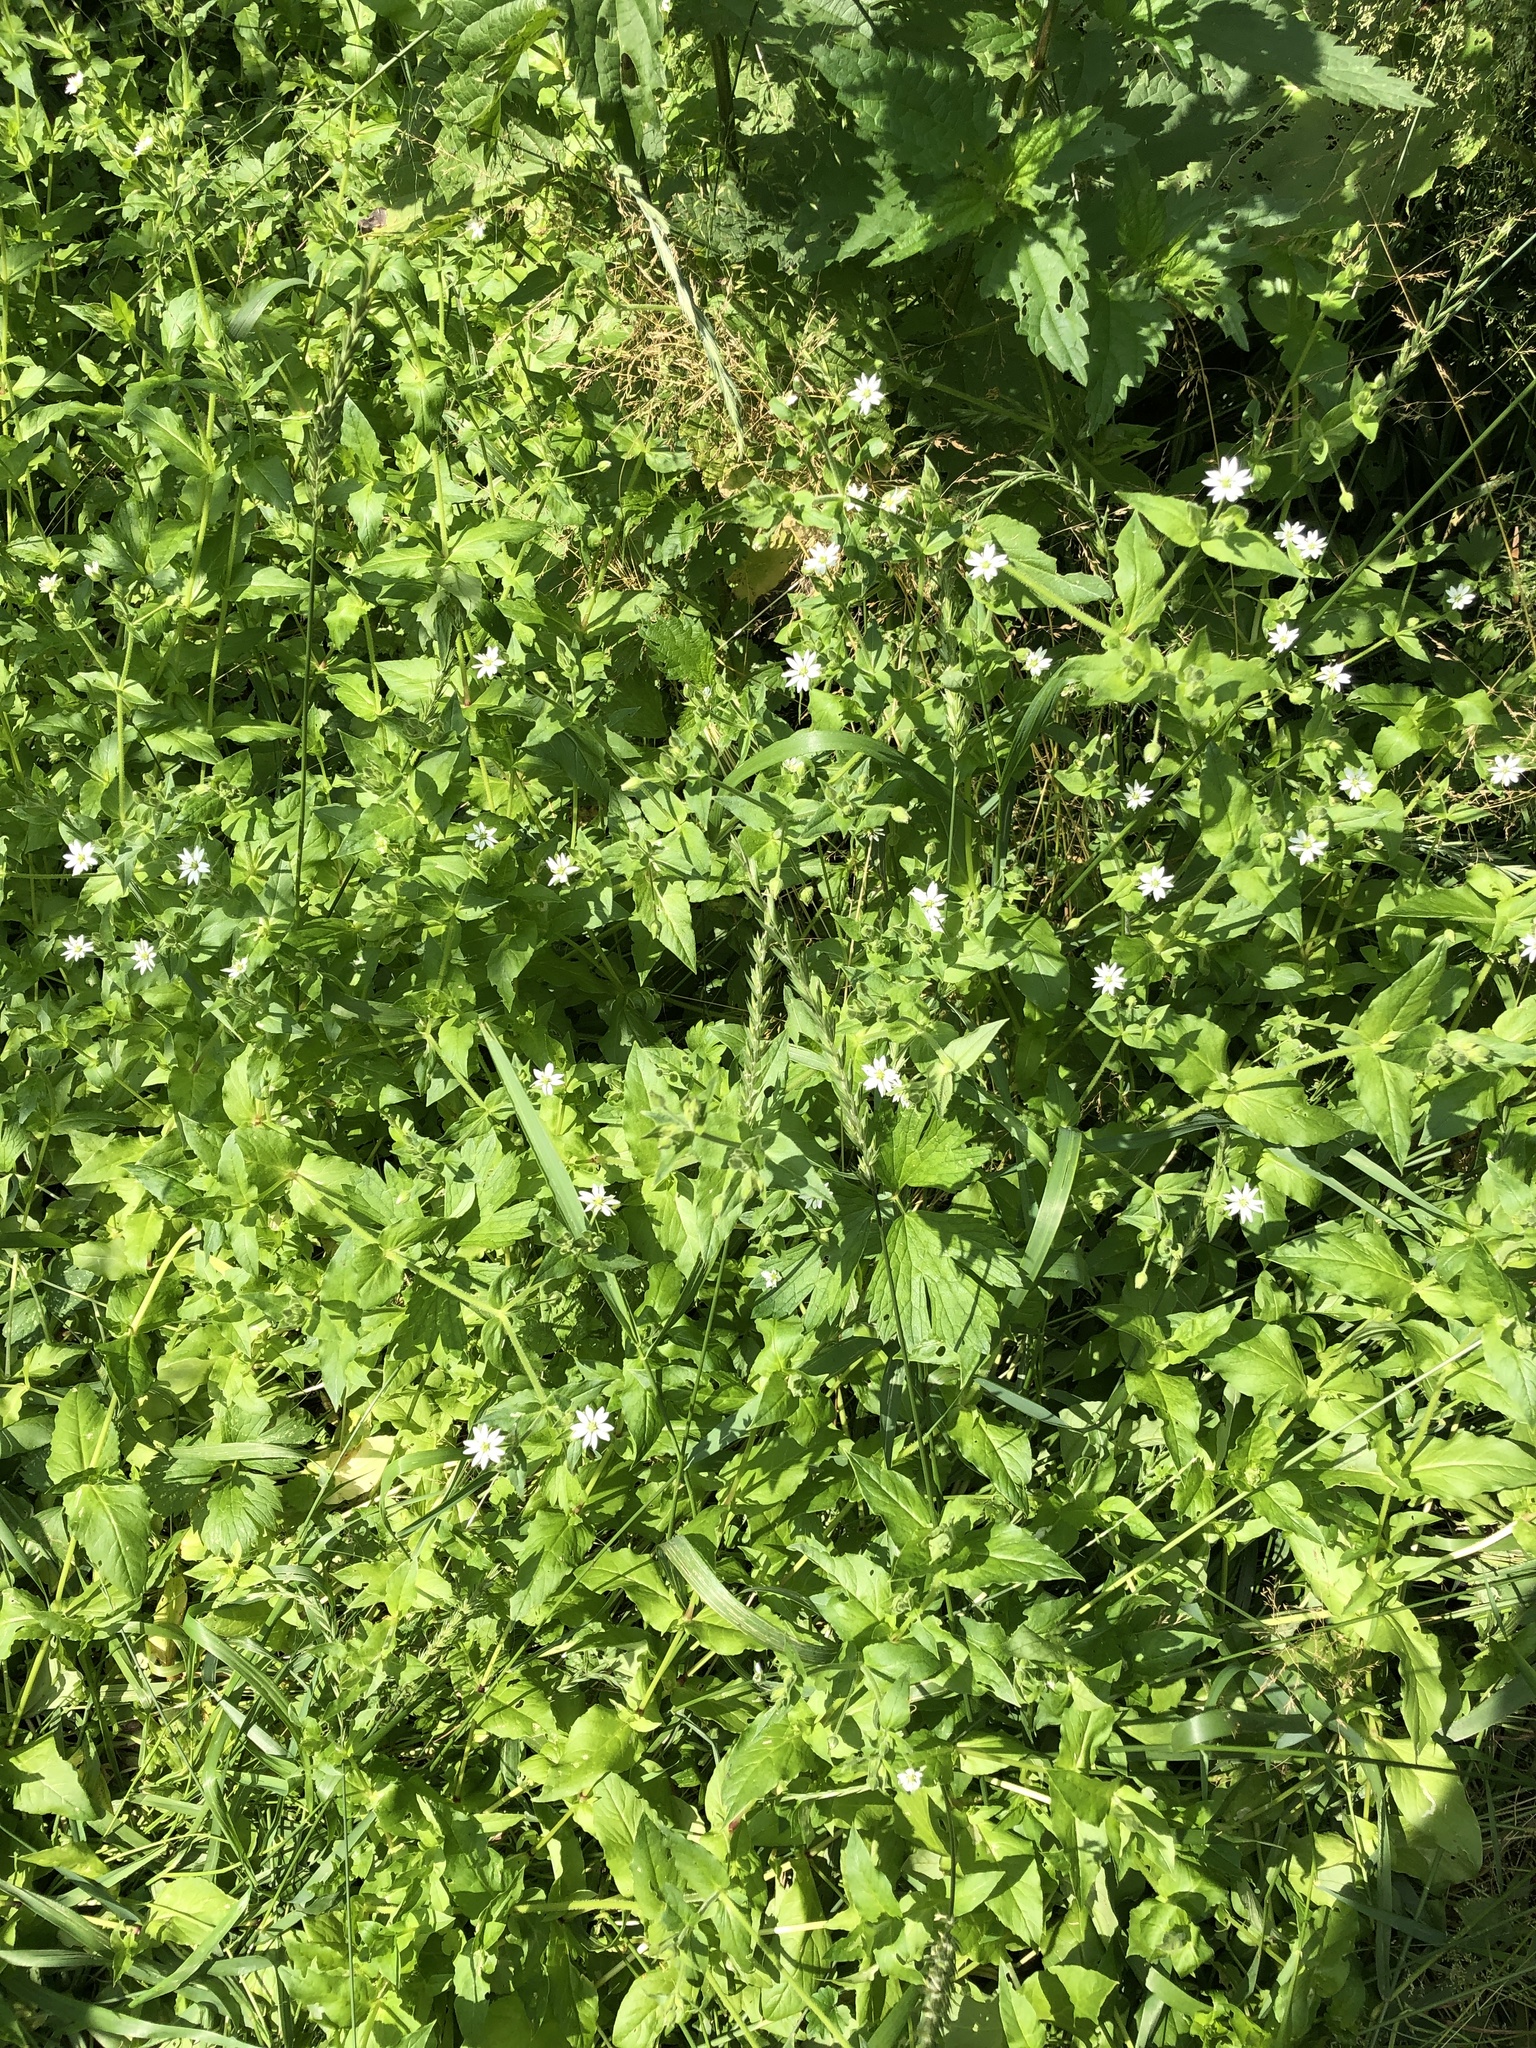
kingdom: Plantae
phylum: Tracheophyta
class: Magnoliopsida
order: Caryophyllales
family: Caryophyllaceae
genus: Stellaria
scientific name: Stellaria aquatica
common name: Water chickweed
